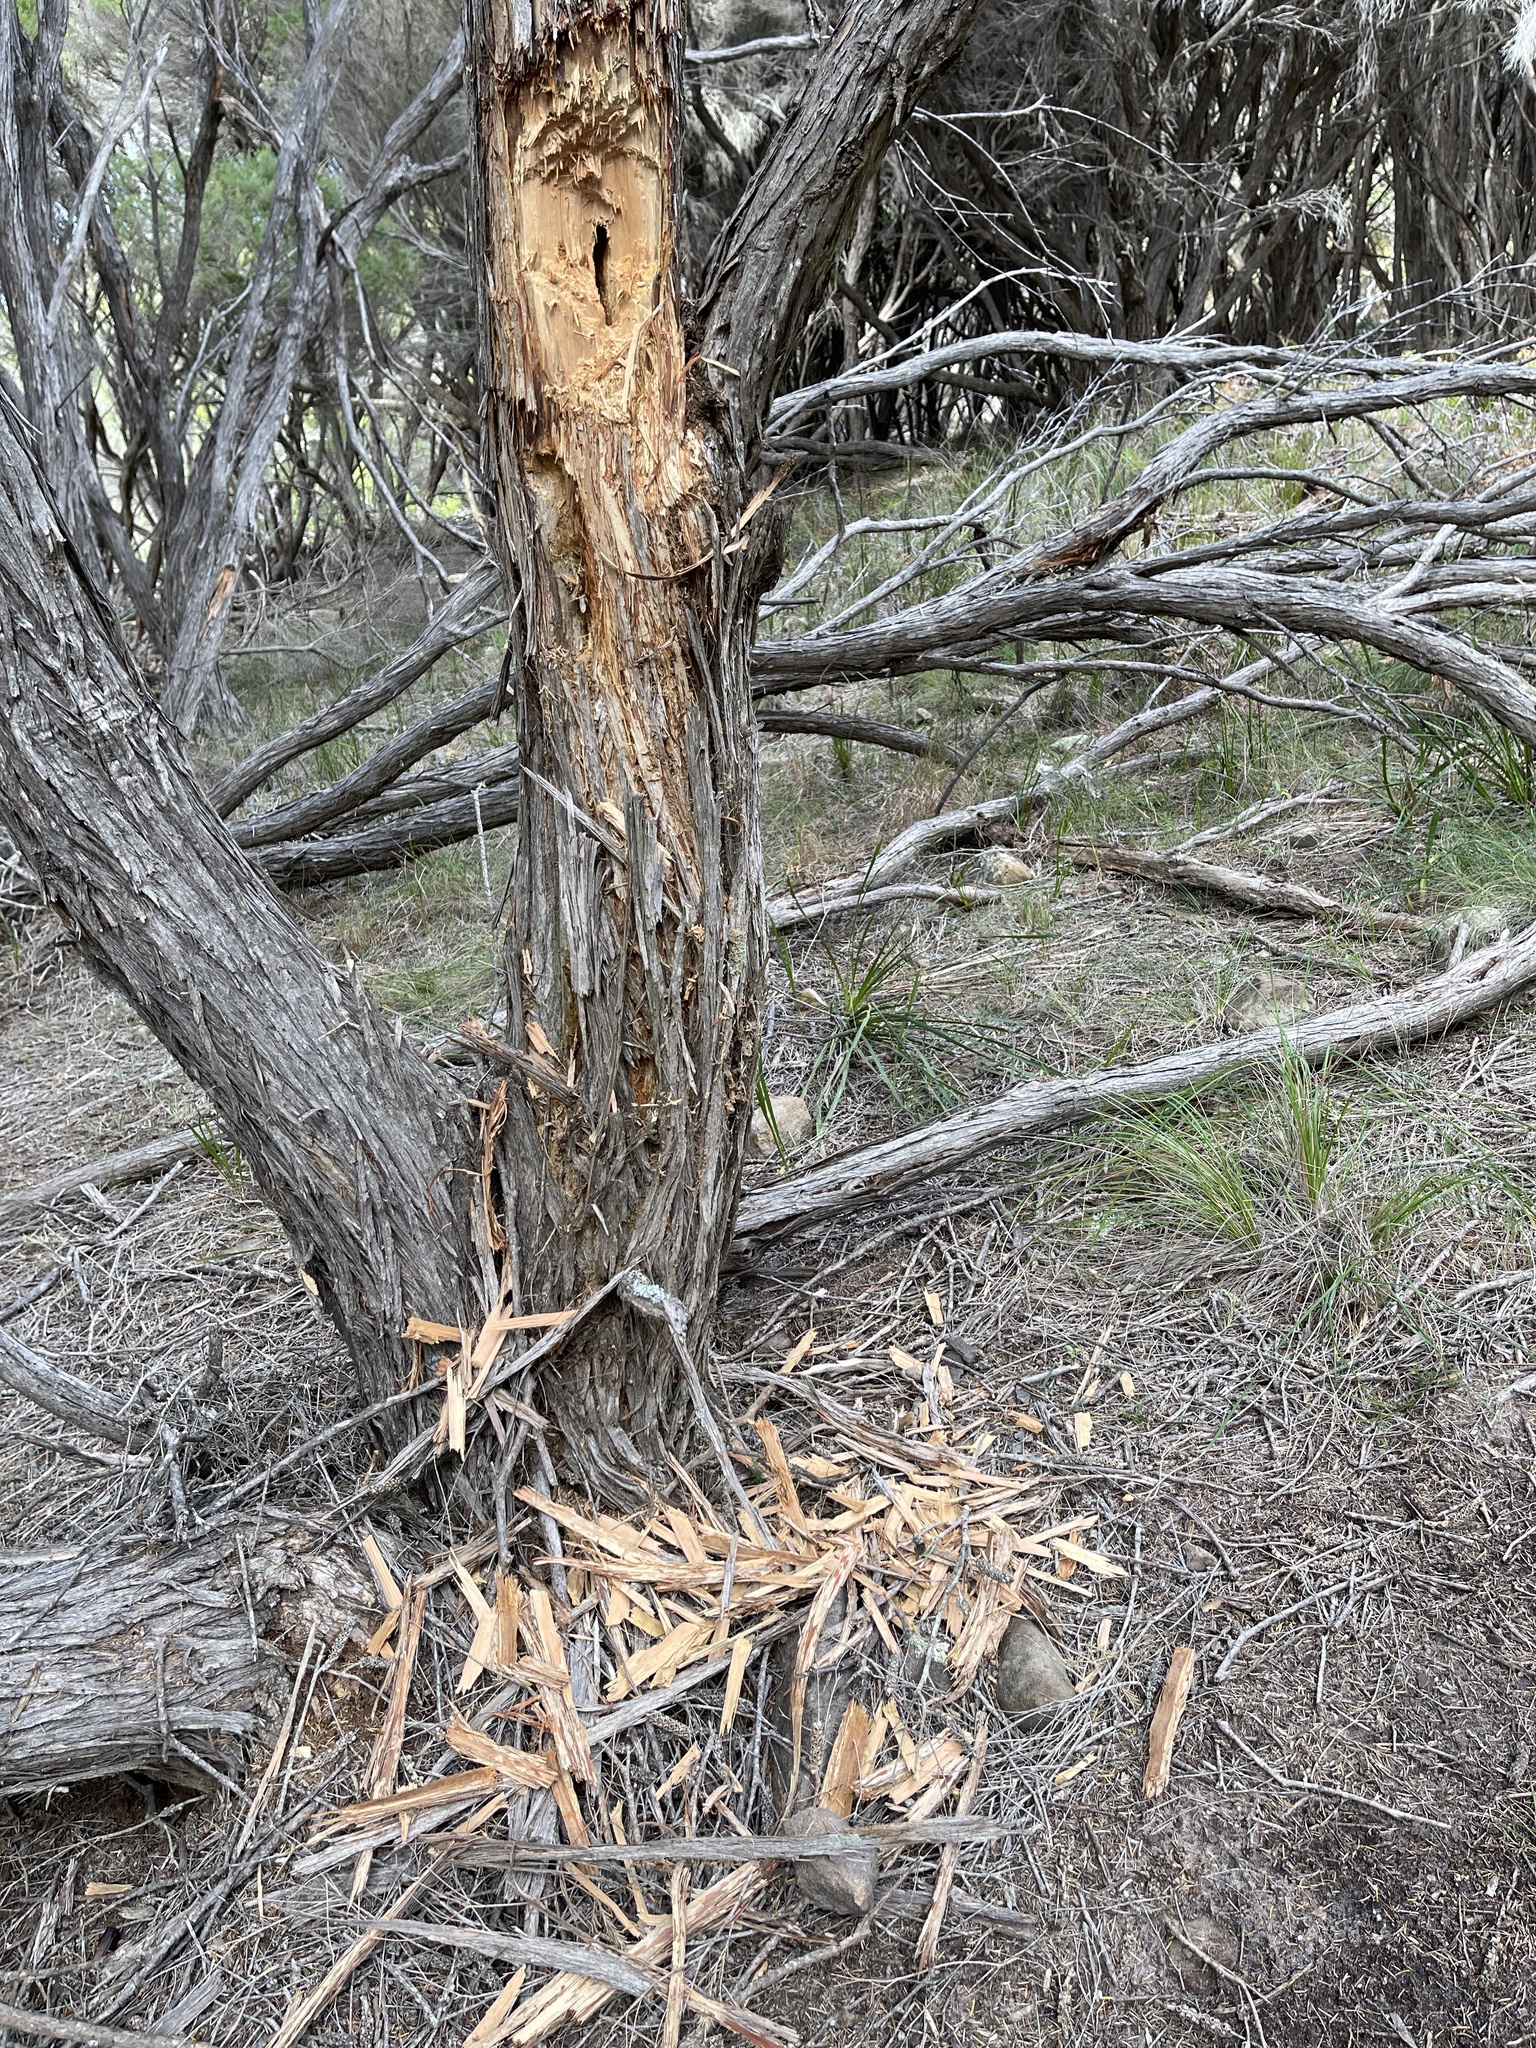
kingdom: Animalia
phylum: Chordata
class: Aves
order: Psittaciformes
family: Cacatuidae
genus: Zanda
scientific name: Zanda funerea
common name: Yellow-tailed black-cockatoo
